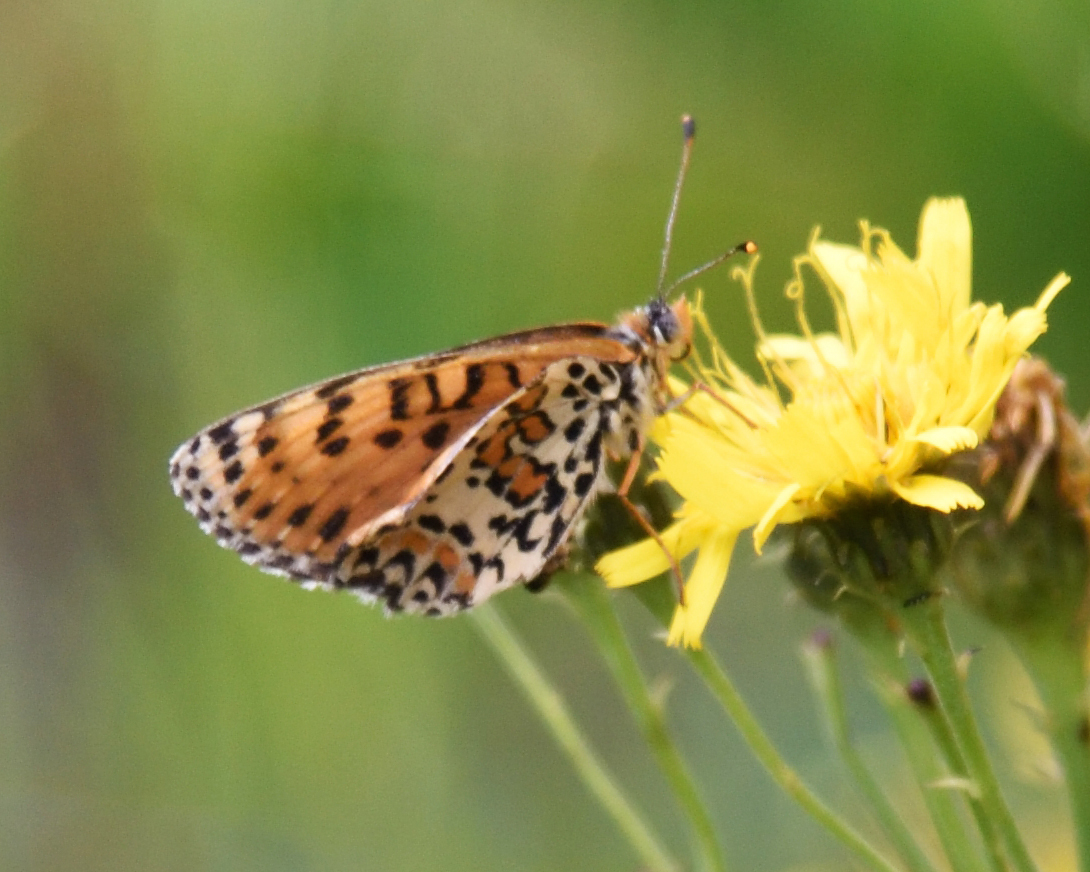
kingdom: Animalia
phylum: Arthropoda
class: Insecta
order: Lepidoptera
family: Nymphalidae
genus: Melitaea
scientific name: Melitaea didyma
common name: Spotted fritillary
